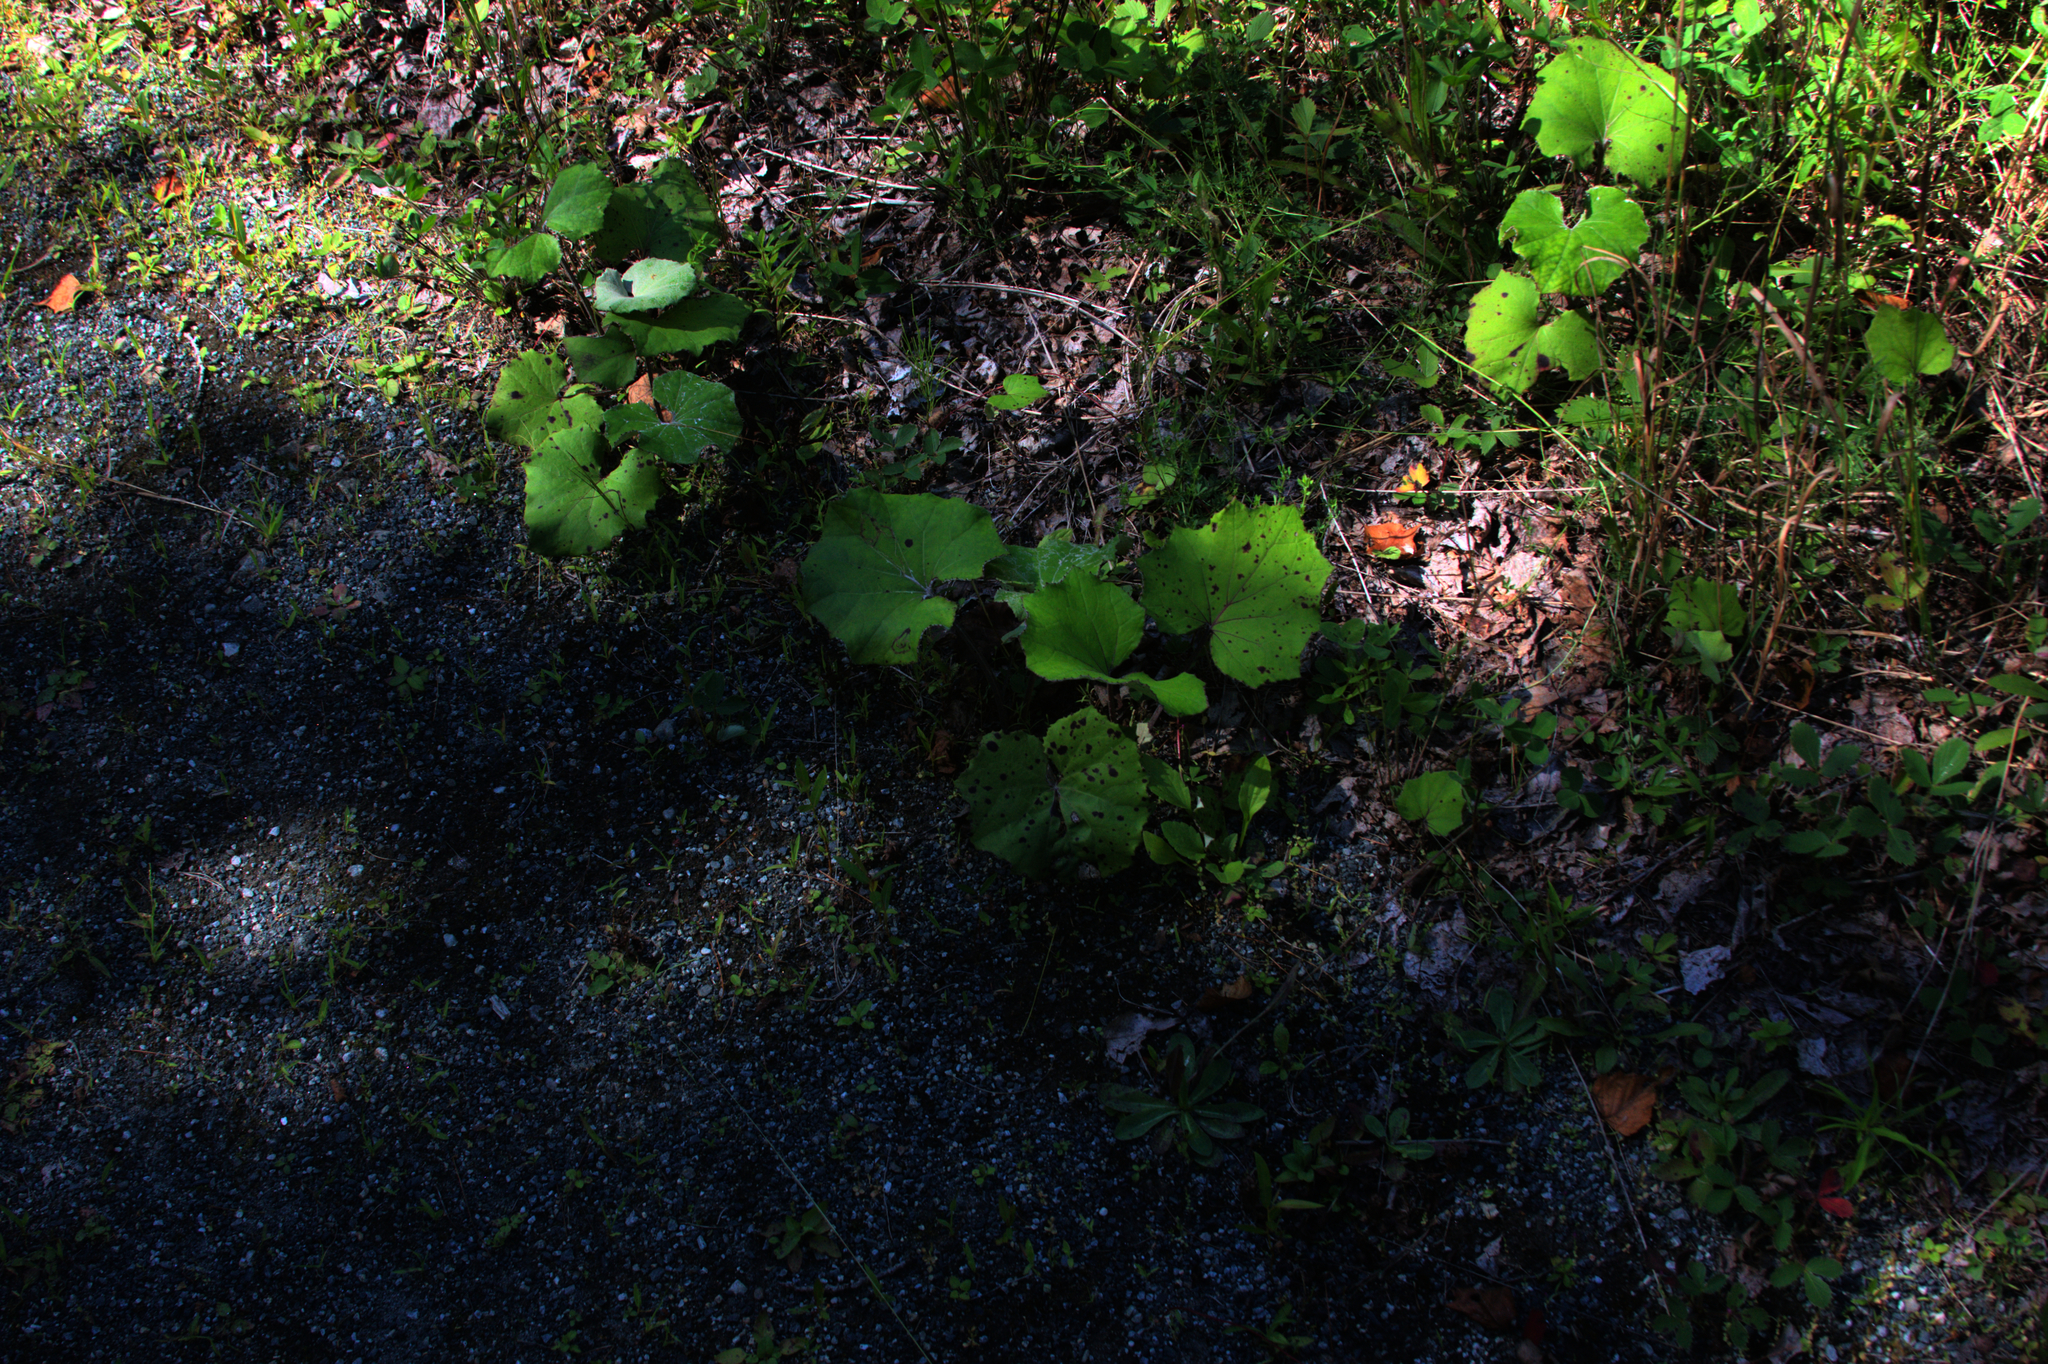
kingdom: Plantae
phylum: Tracheophyta
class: Magnoliopsida
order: Asterales
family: Asteraceae
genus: Tussilago
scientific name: Tussilago farfara
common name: Coltsfoot
